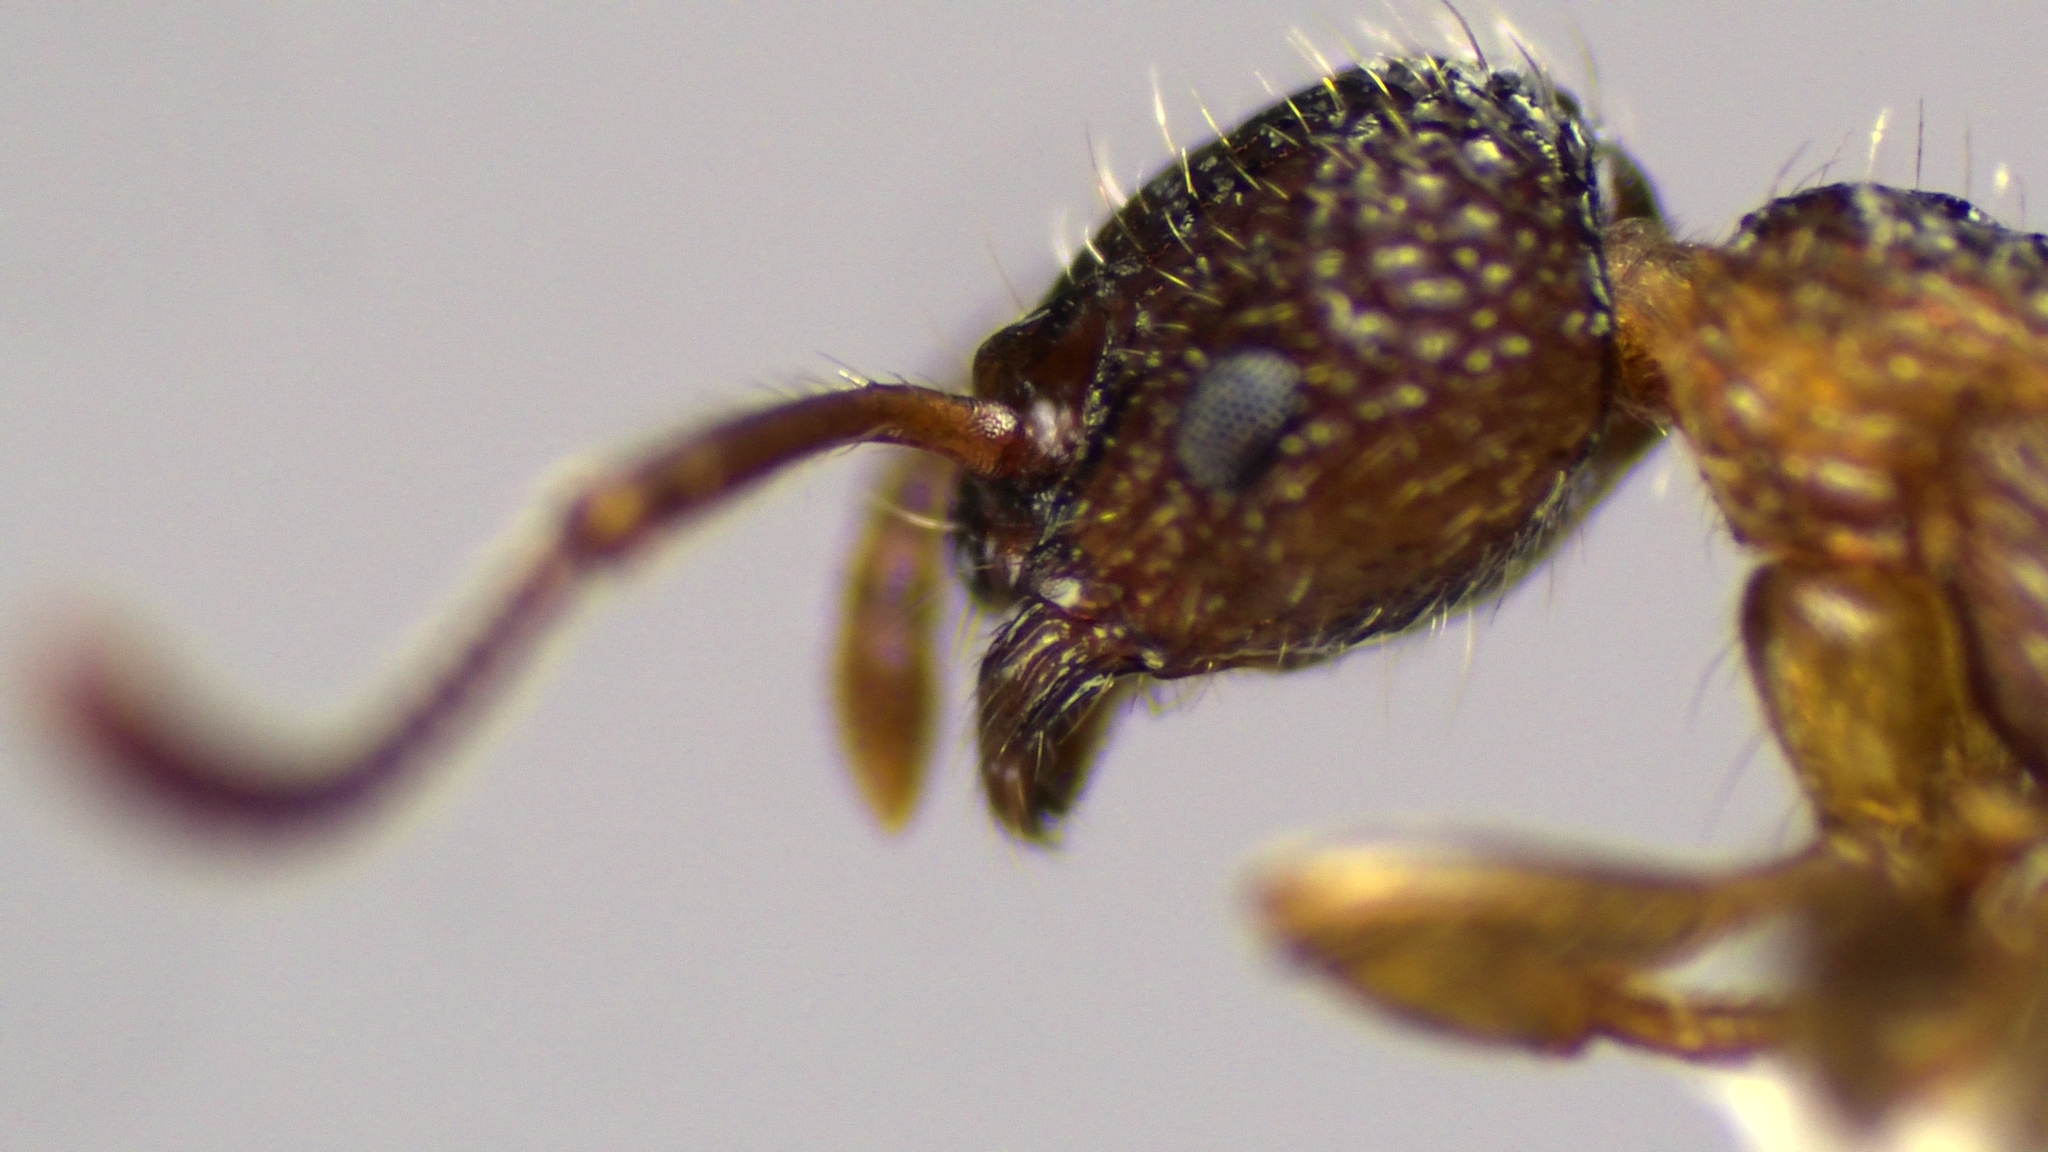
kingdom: Animalia
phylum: Arthropoda
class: Insecta
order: Hymenoptera
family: Formicidae
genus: Myrmica
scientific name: Myrmica punctiventris
